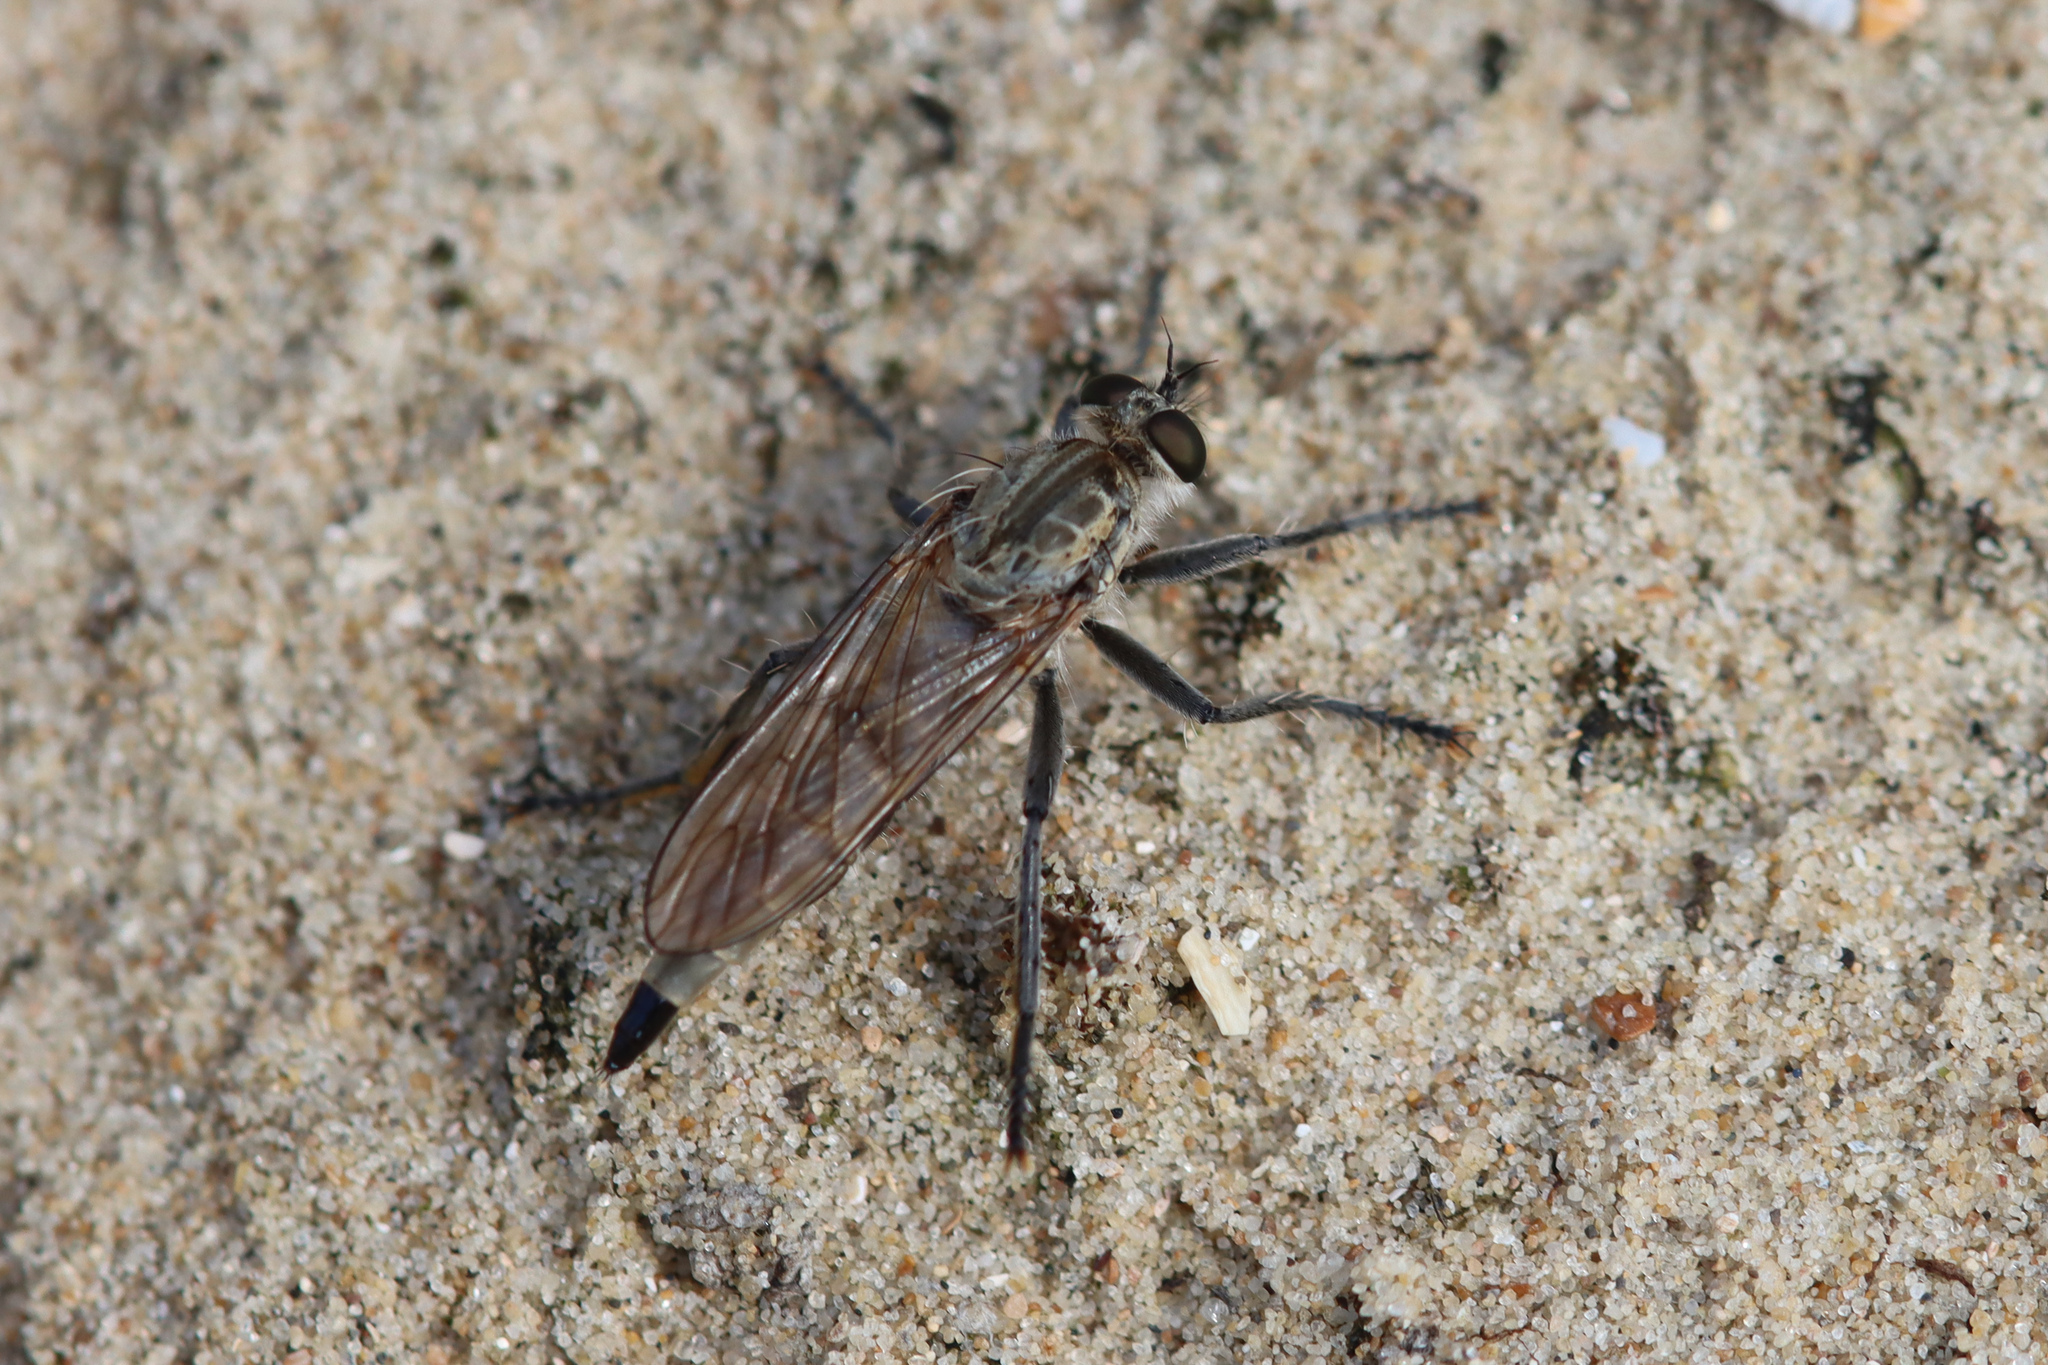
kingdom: Animalia
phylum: Arthropoda
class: Insecta
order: Diptera
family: Asilidae
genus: Philonicus
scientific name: Philonicus albiceps
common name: Dune robberfly
